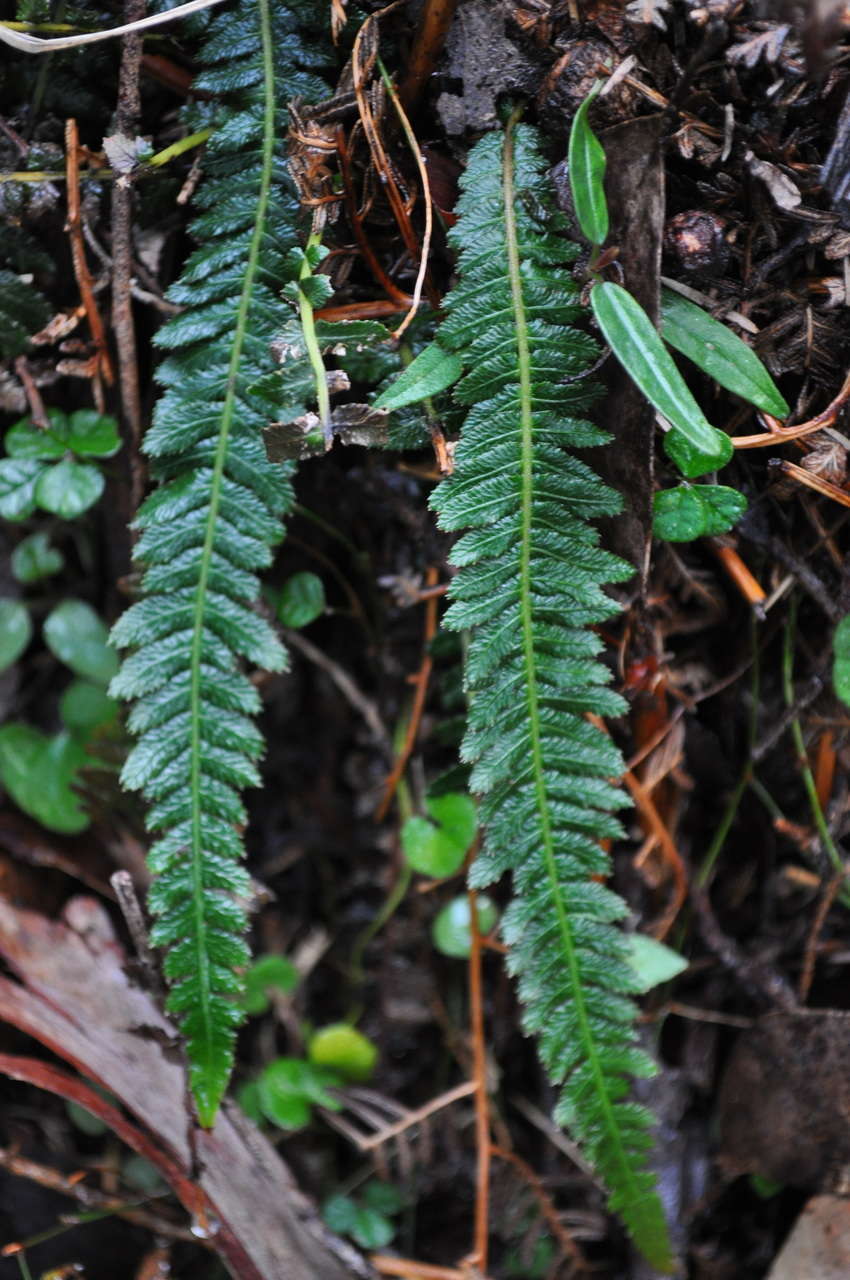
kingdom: Plantae
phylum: Tracheophyta
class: Polypodiopsida
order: Polypodiales
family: Blechnaceae
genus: Doodia
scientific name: Doodia australis
